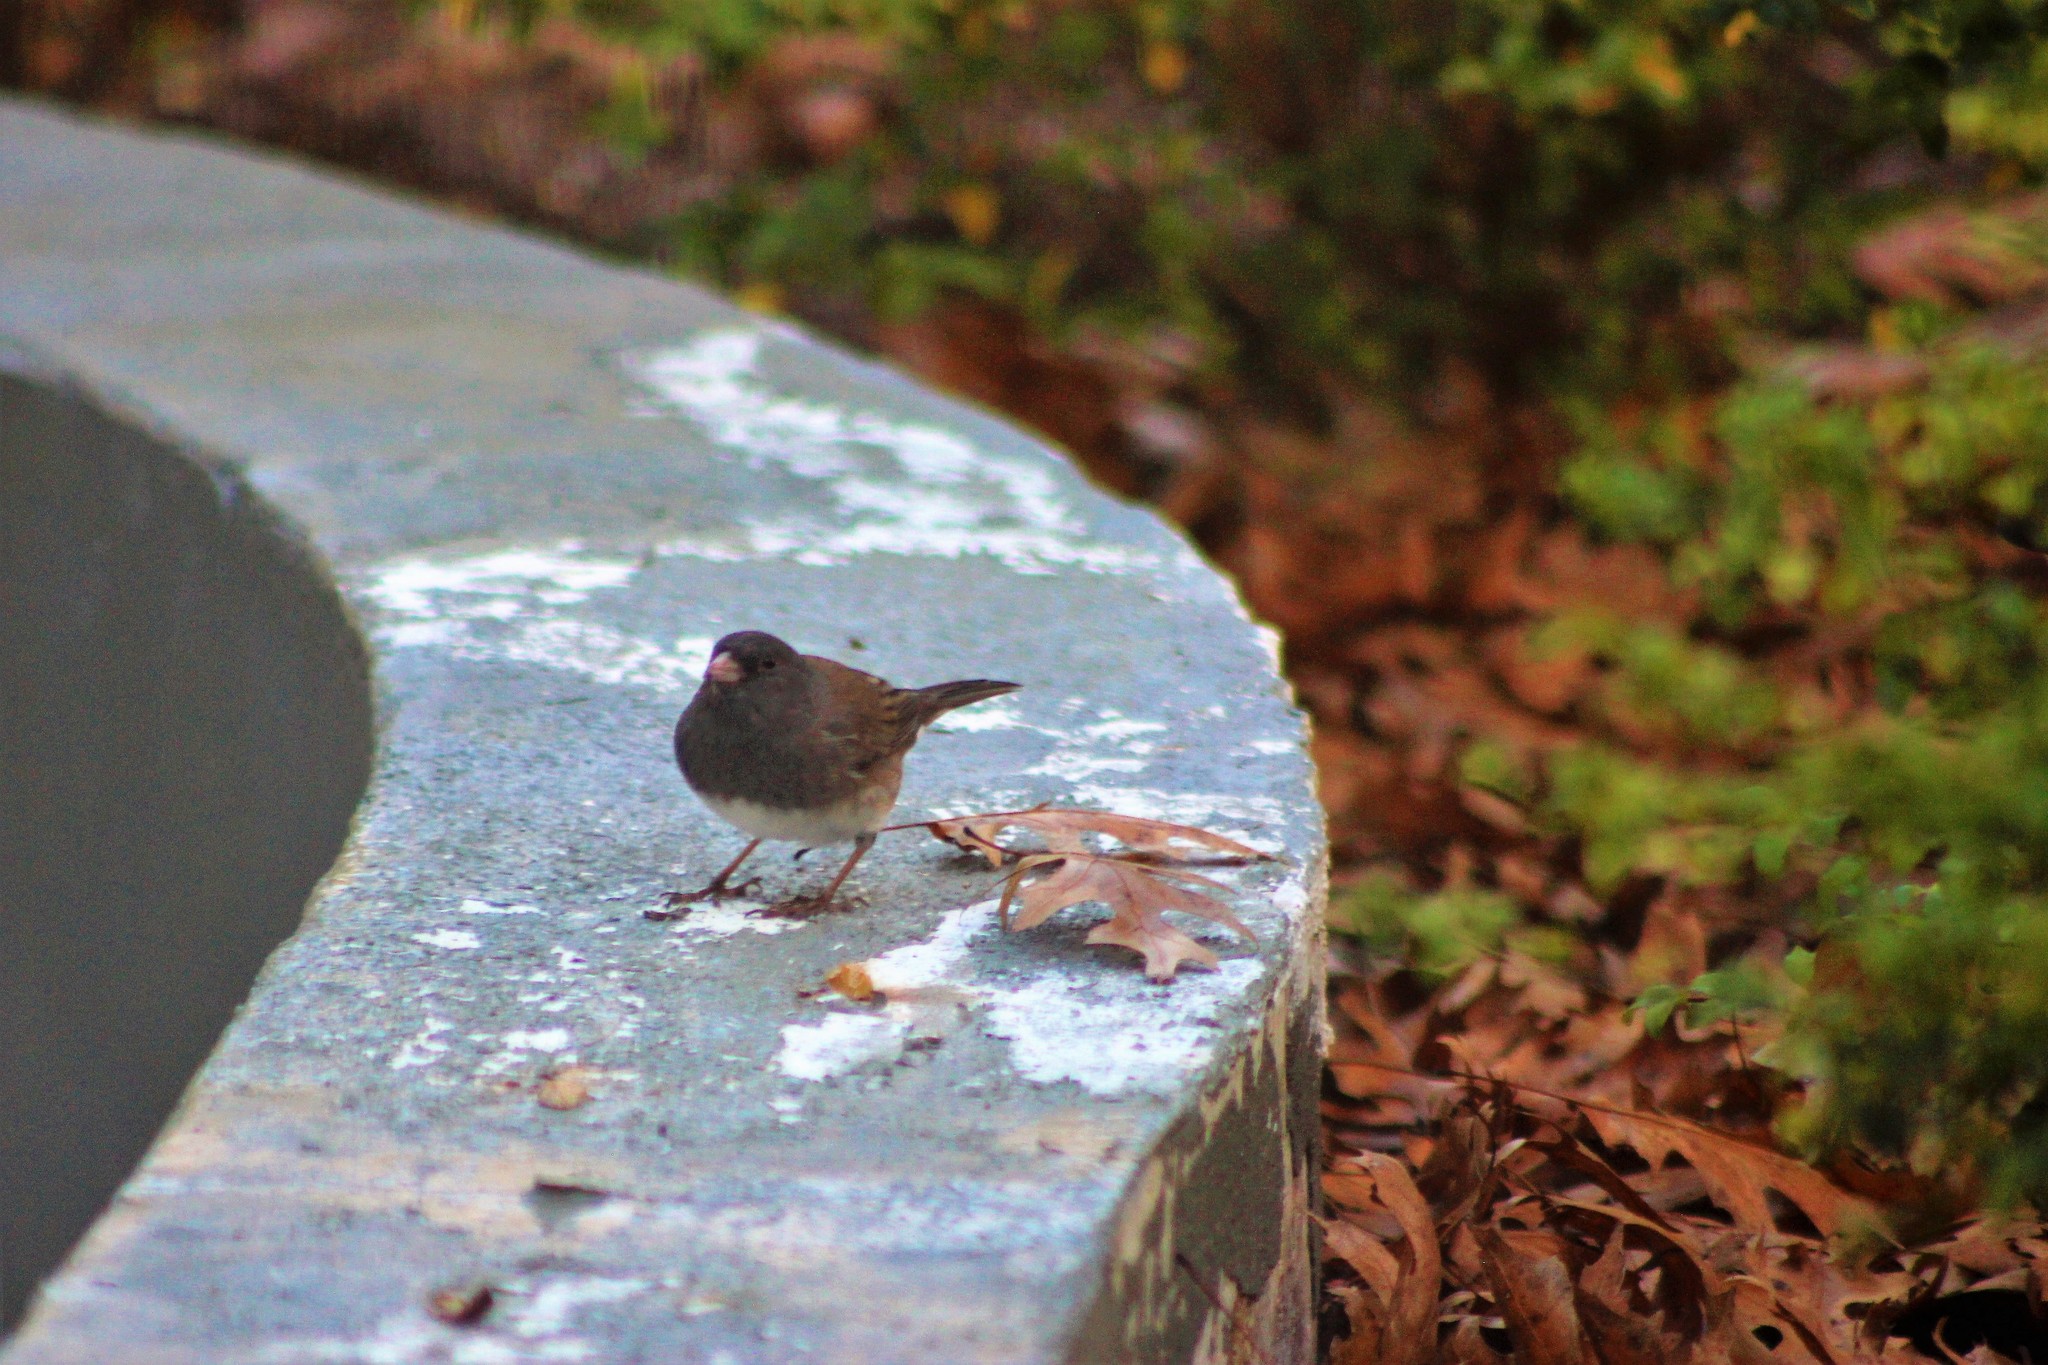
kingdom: Animalia
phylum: Chordata
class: Aves
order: Passeriformes
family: Passerellidae
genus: Junco
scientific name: Junco hyemalis
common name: Dark-eyed junco
